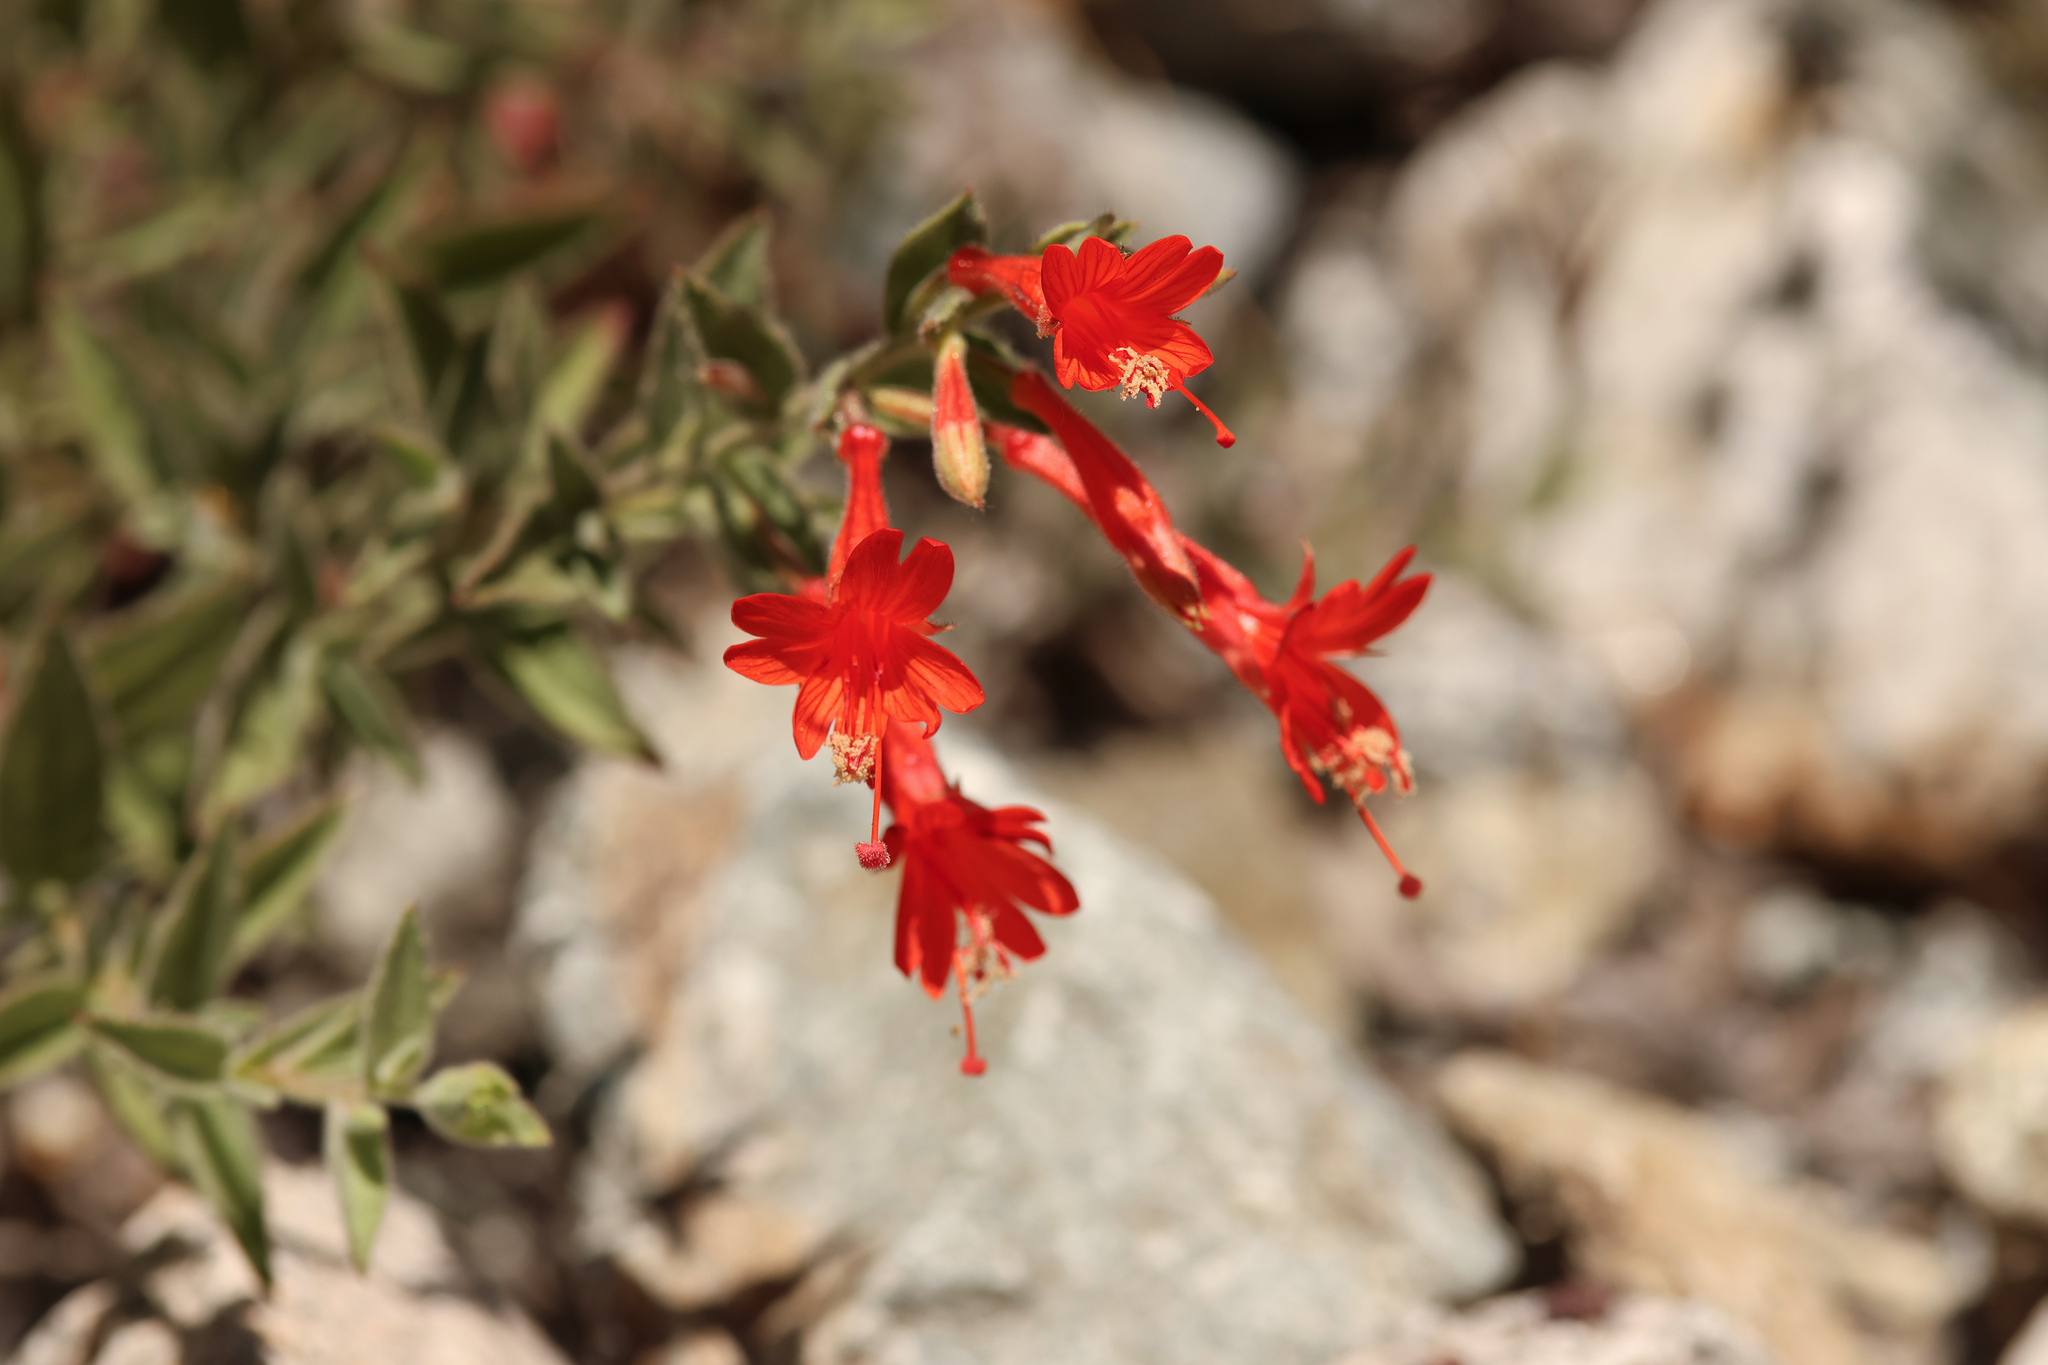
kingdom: Plantae
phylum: Tracheophyta
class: Magnoliopsida
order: Myrtales
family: Onagraceae
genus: Epilobium
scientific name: Epilobium canum
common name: California-fuchsia
